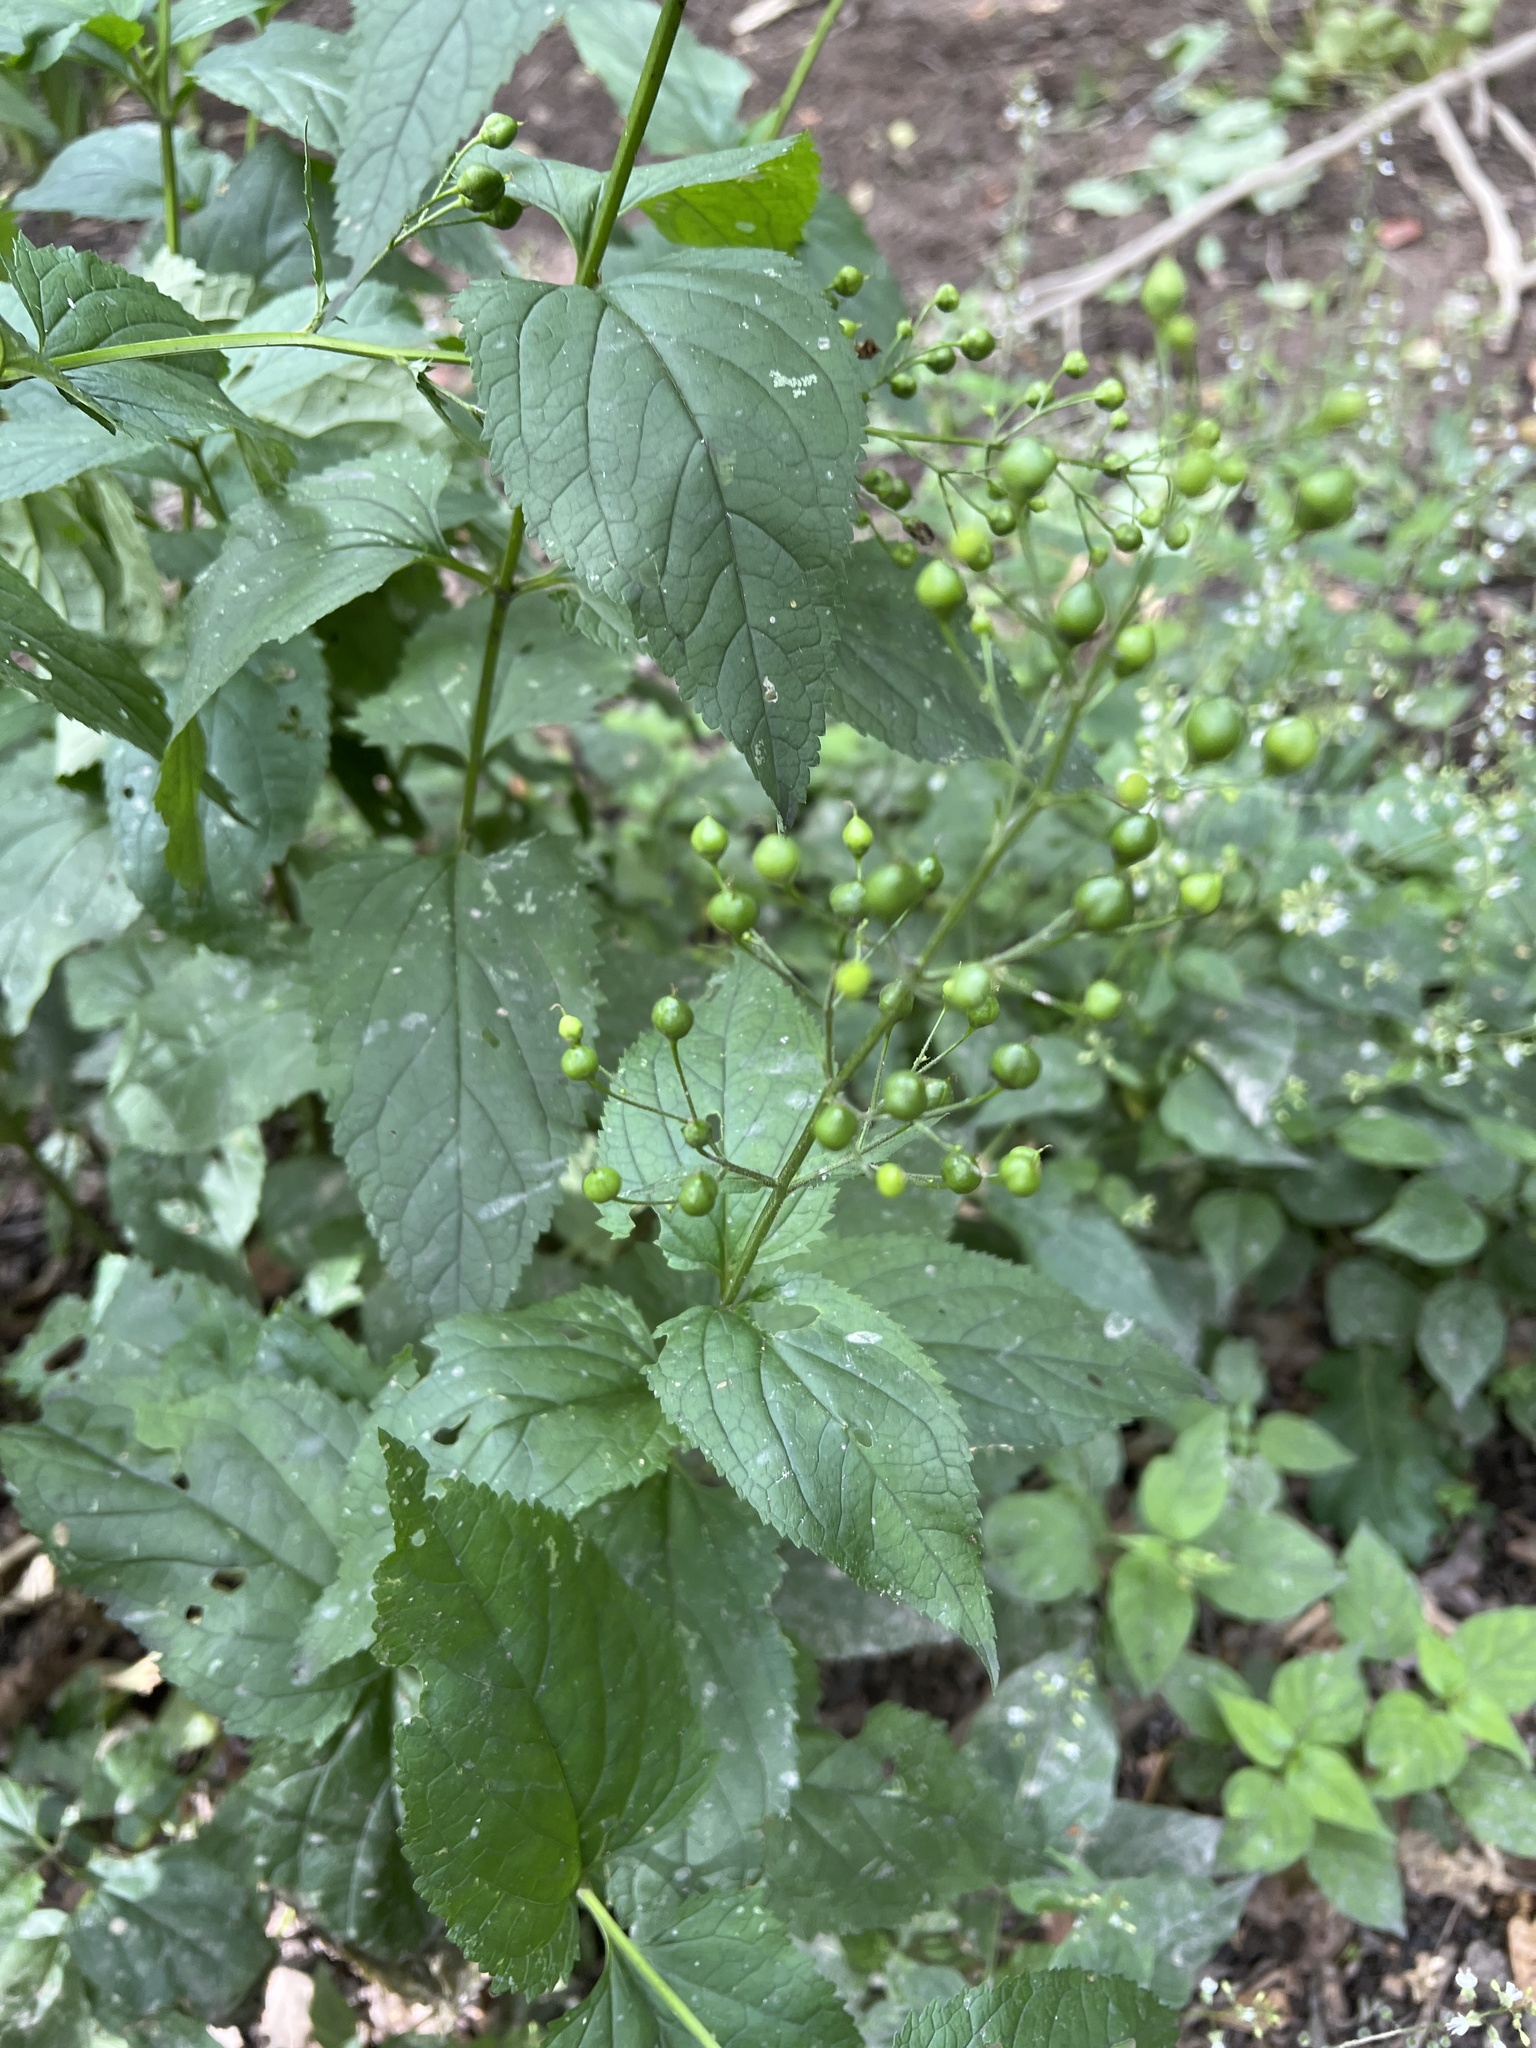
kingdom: Plantae
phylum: Tracheophyta
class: Magnoliopsida
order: Lamiales
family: Scrophulariaceae
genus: Scrophularia
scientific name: Scrophularia nodosa
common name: Common figwort
